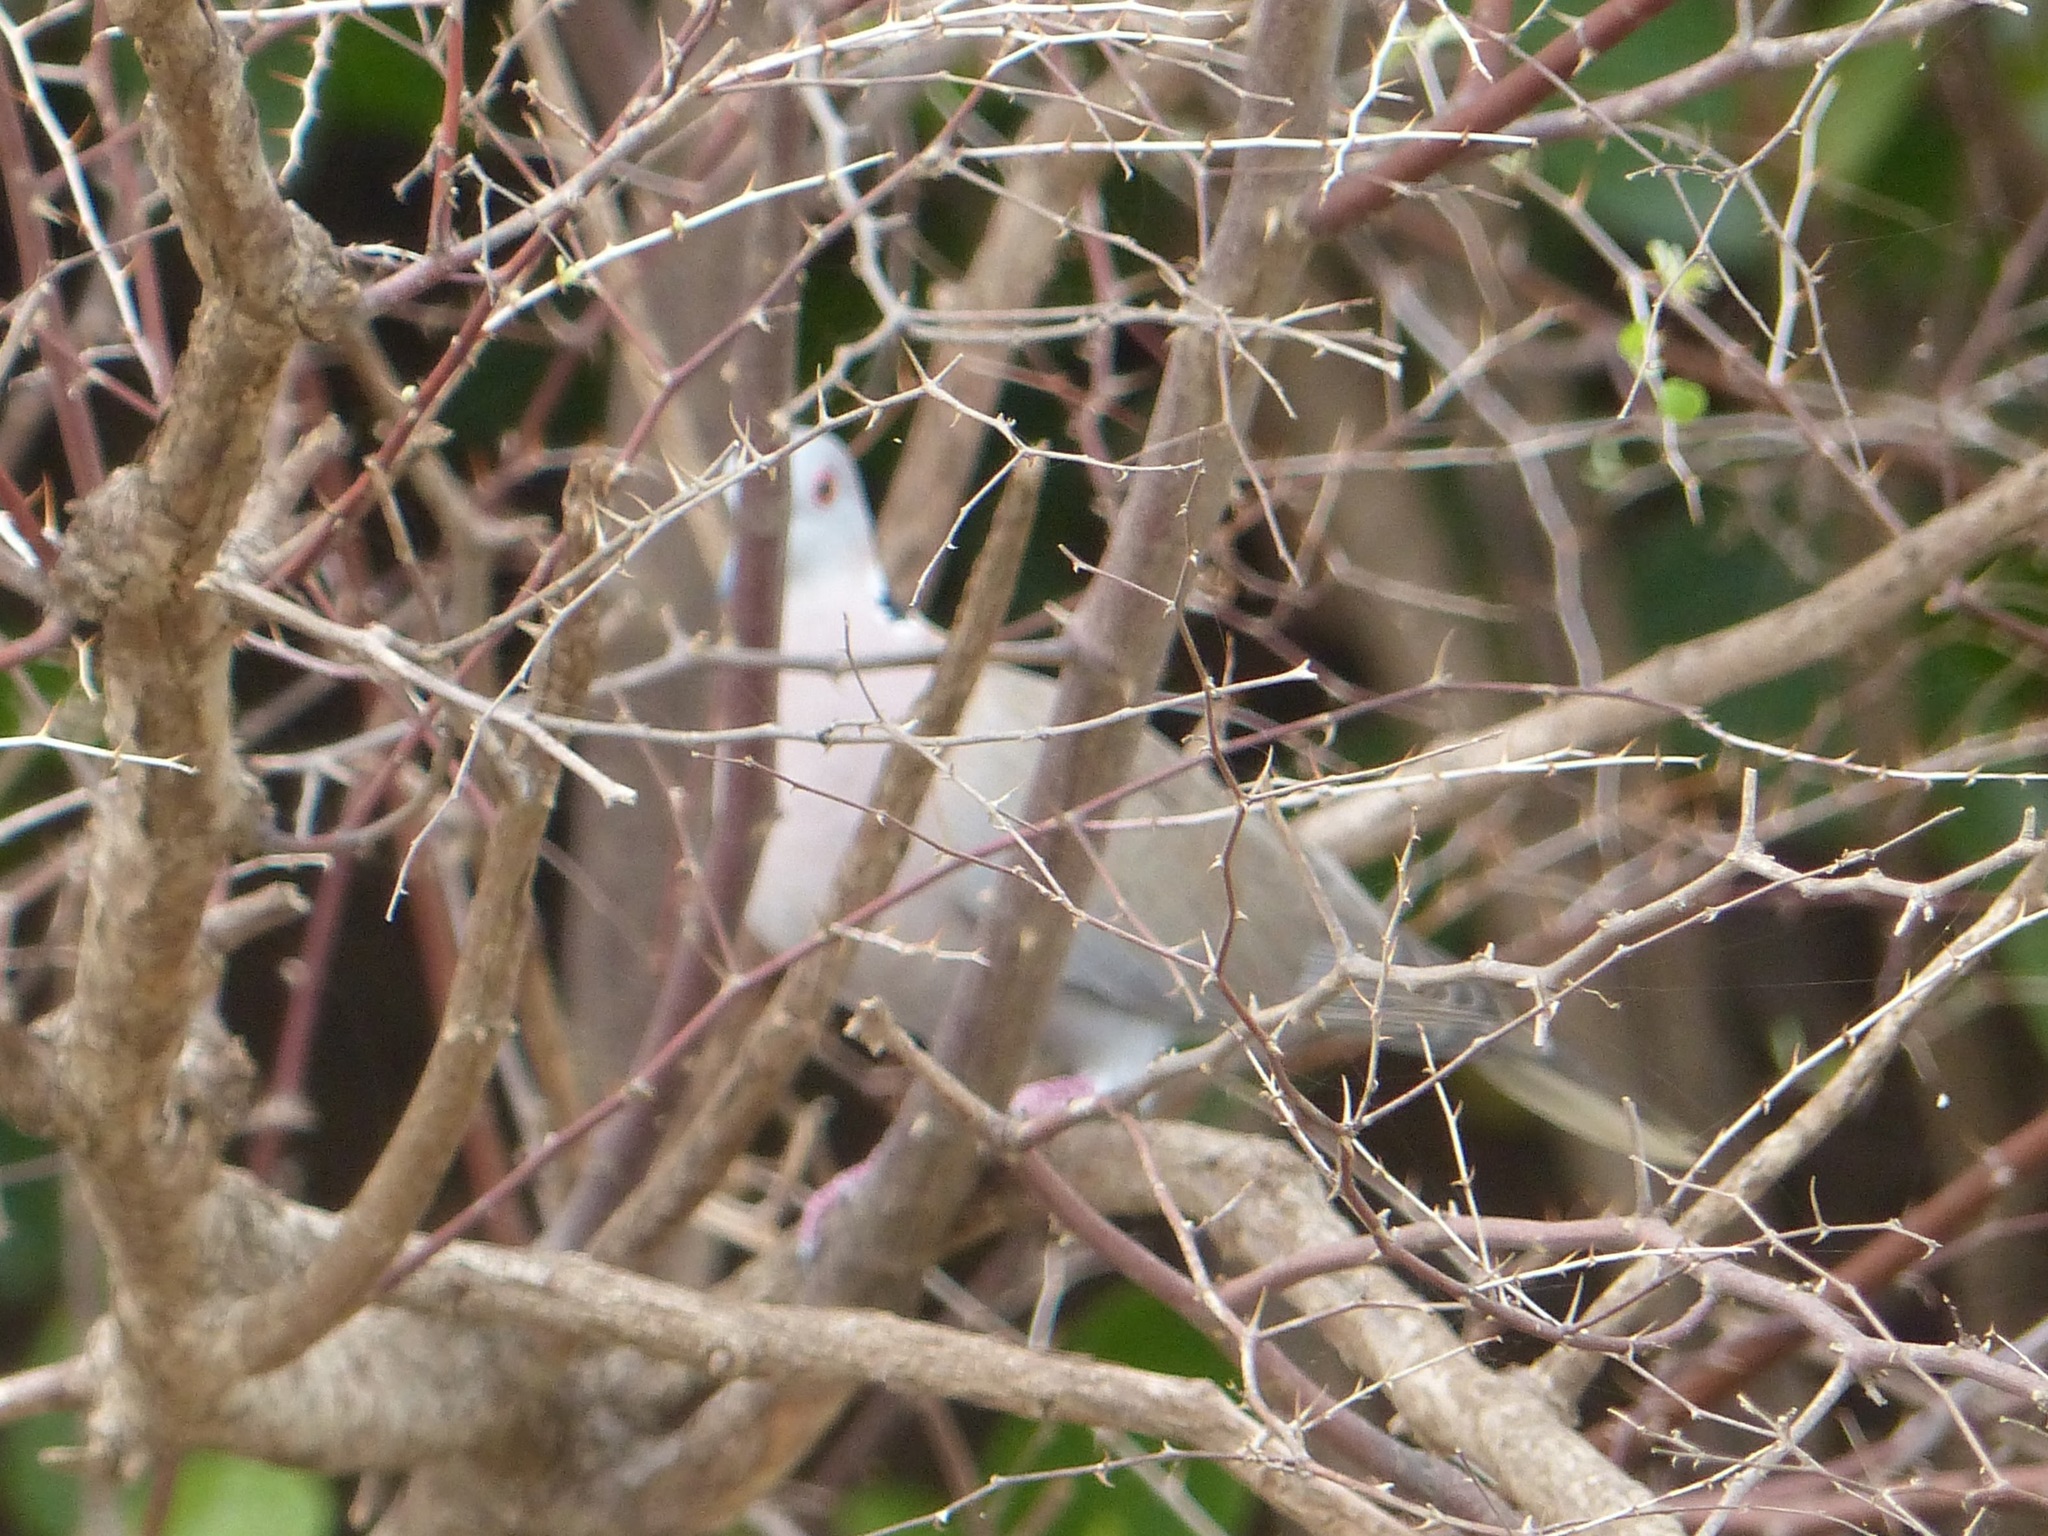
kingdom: Animalia
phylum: Chordata
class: Aves
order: Columbiformes
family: Columbidae
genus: Streptopelia
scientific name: Streptopelia decipiens
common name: Mourning collared dove
